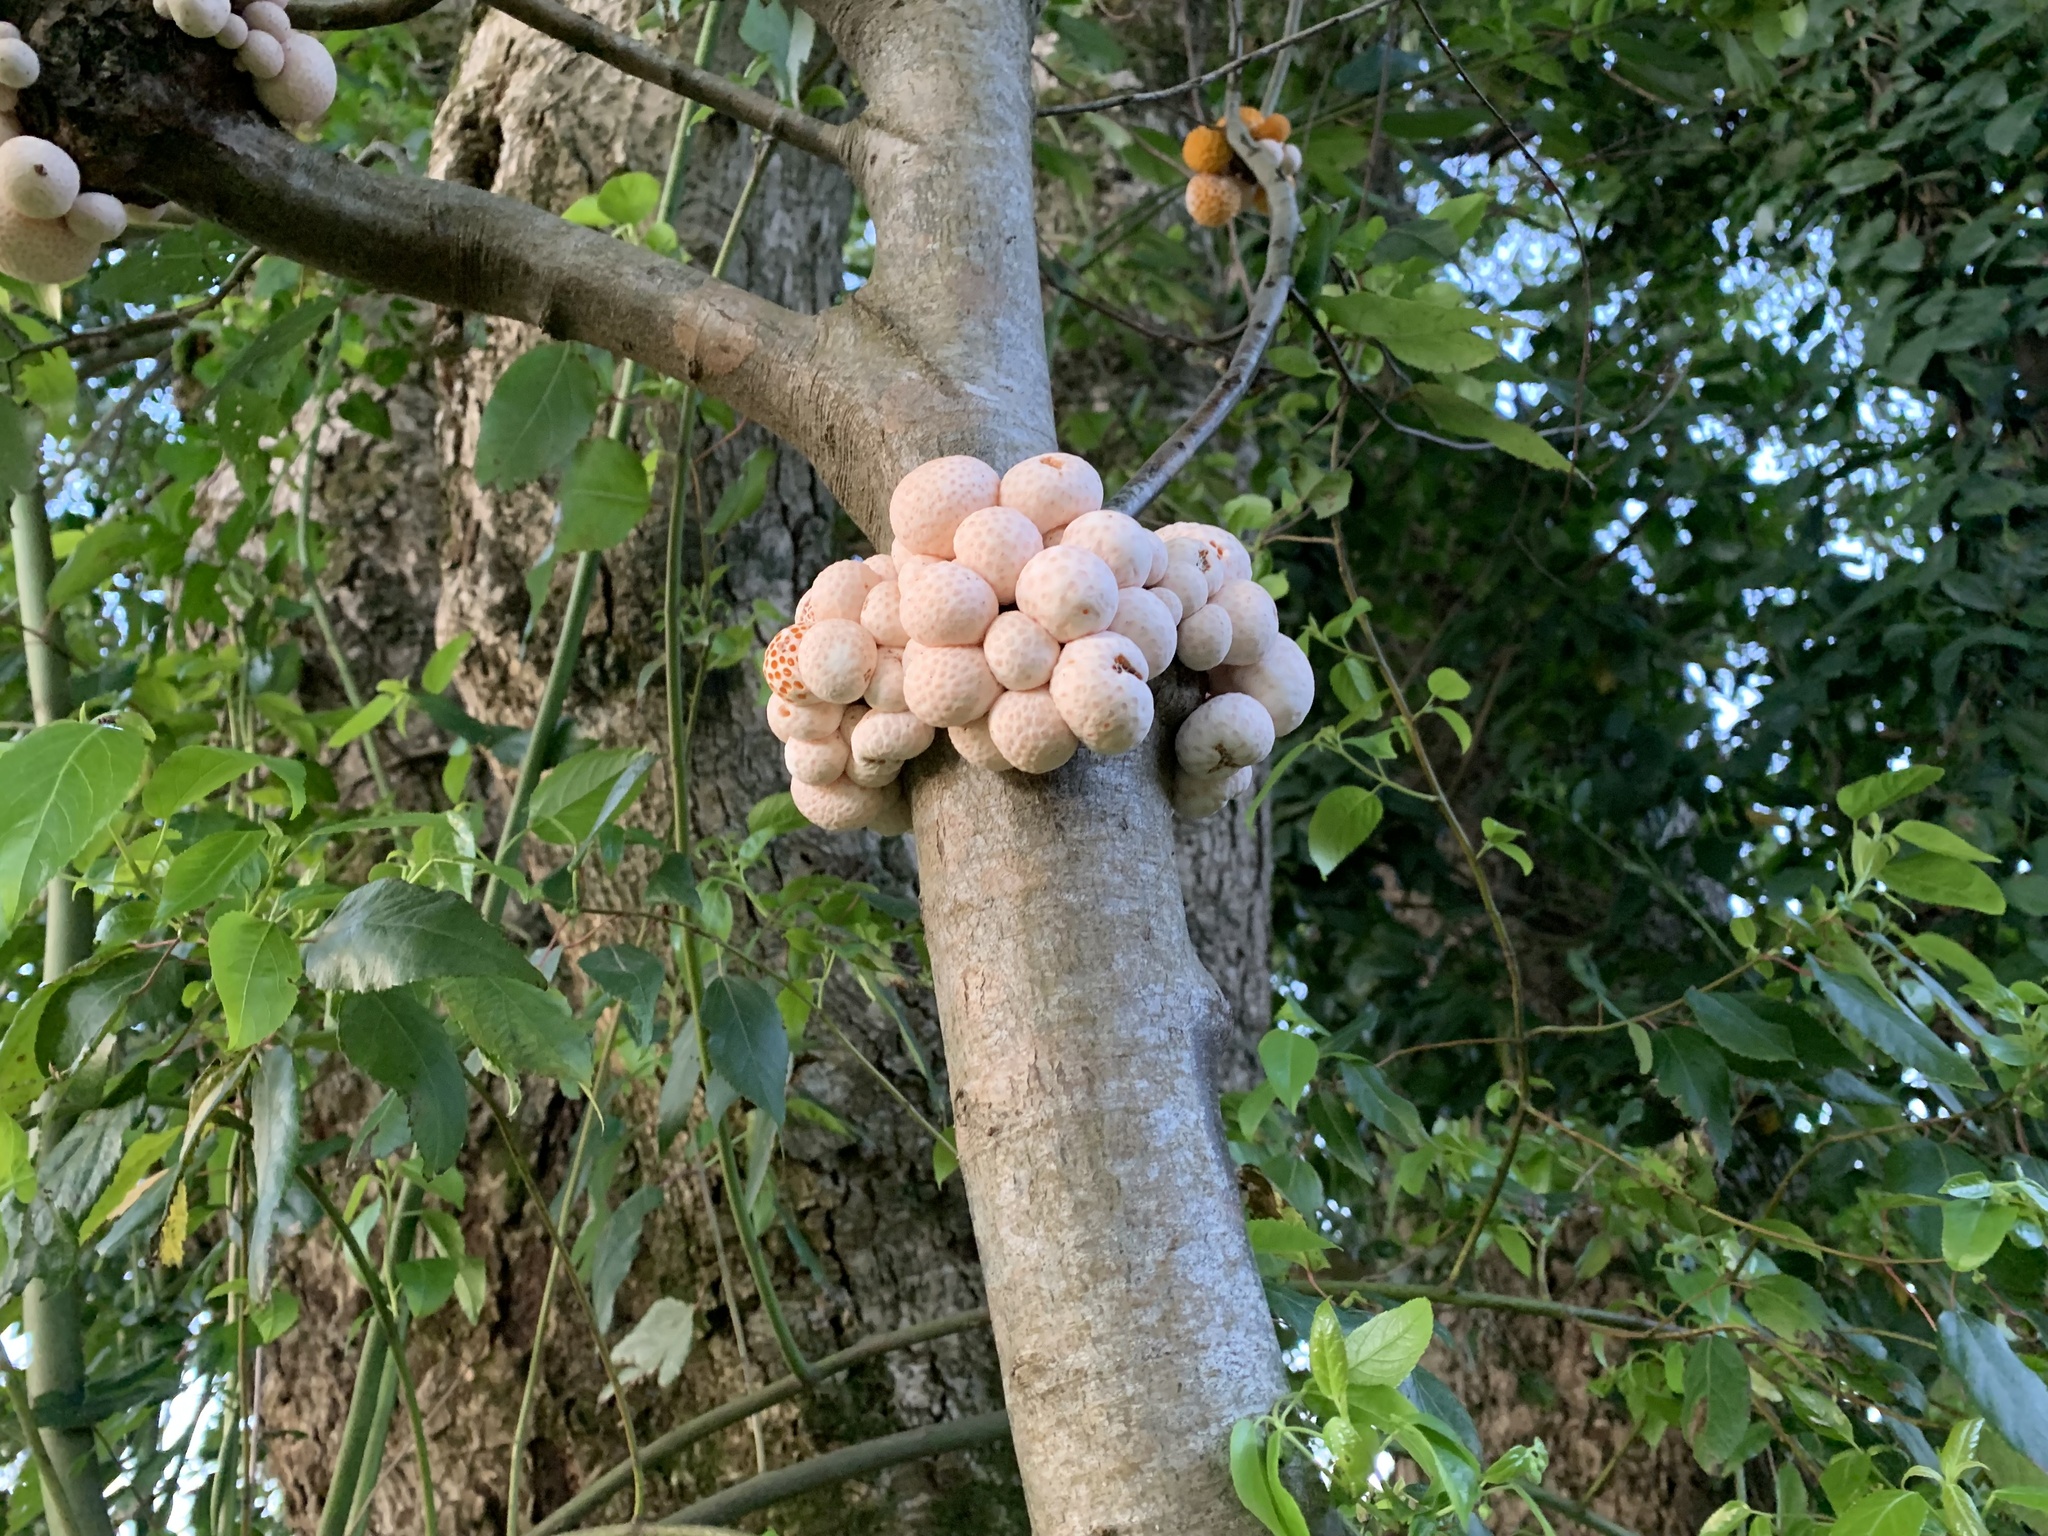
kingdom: Fungi
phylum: Ascomycota
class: Leotiomycetes
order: Cyttariales
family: Cyttariaceae
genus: Cyttaria
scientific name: Cyttaria espinosae
